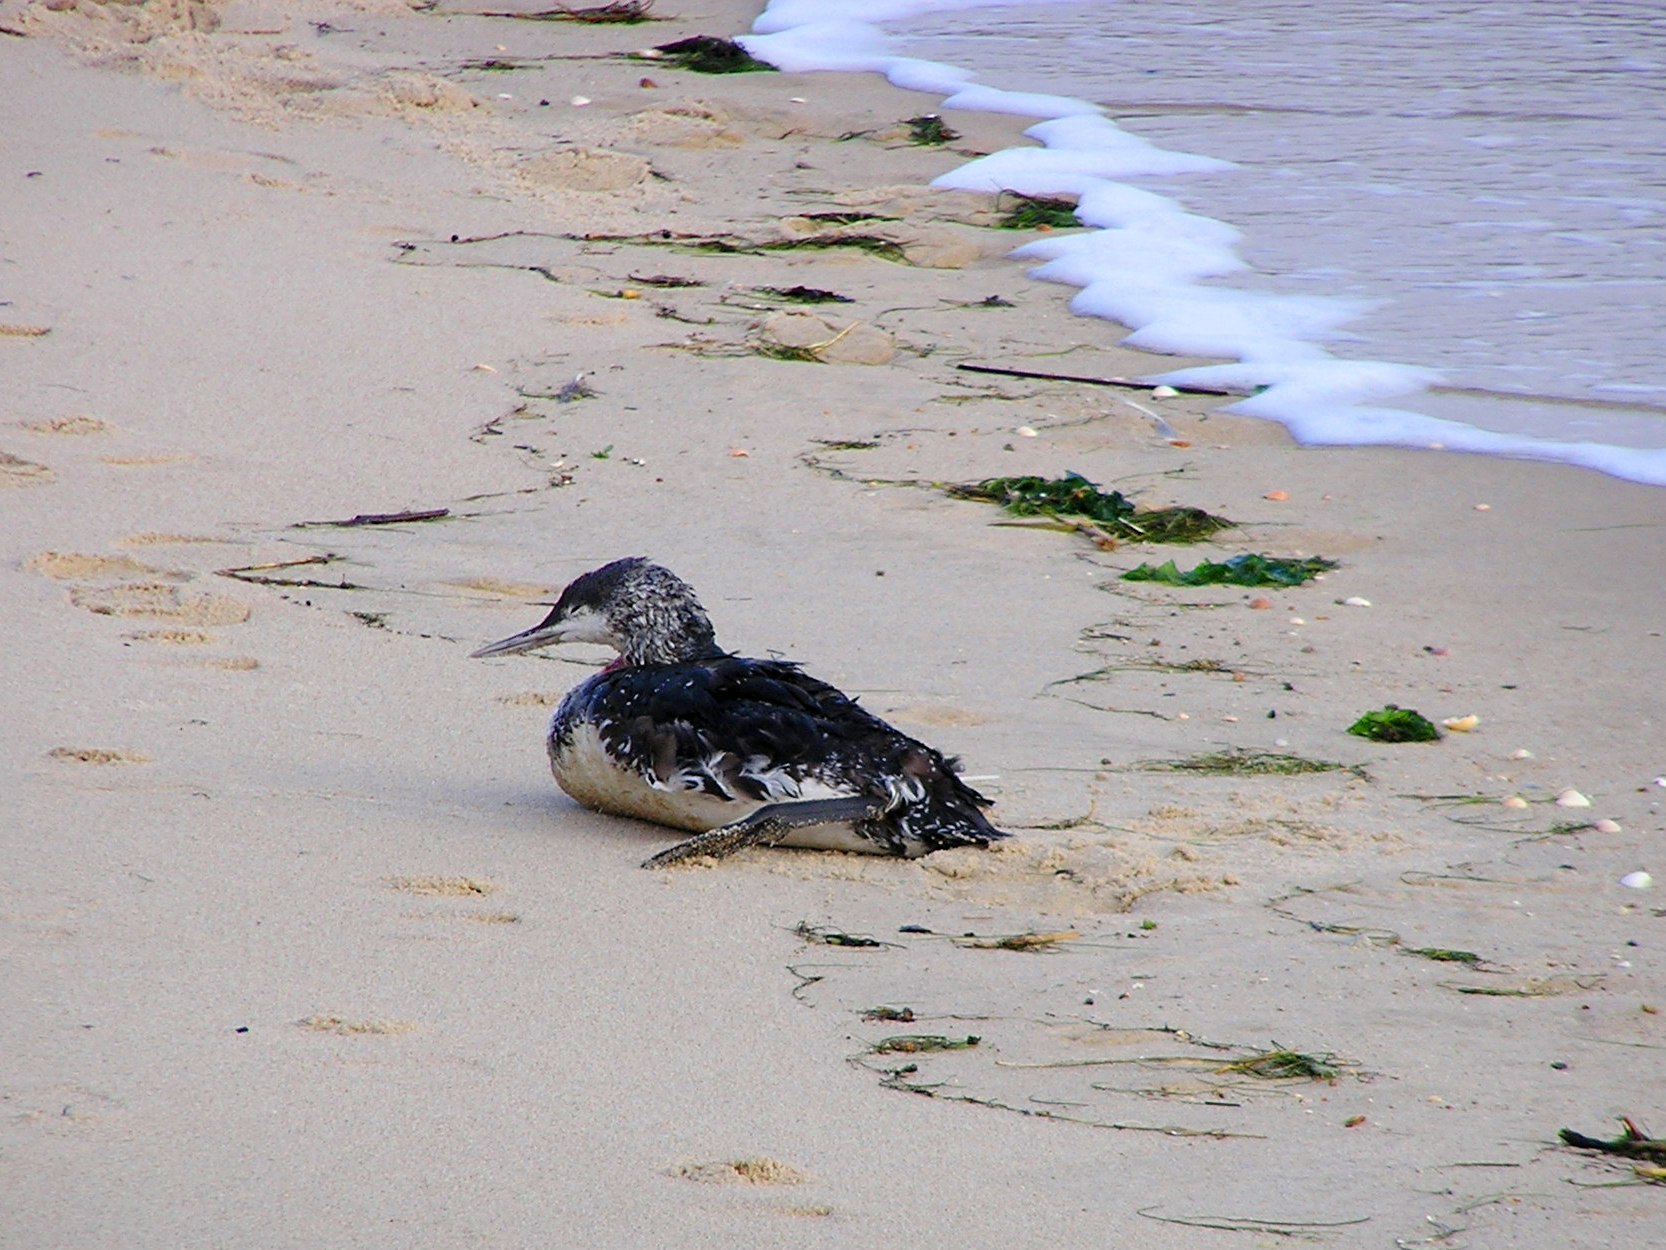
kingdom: Animalia
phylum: Chordata
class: Aves
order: Gaviiformes
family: Gaviidae
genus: Gavia
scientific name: Gavia stellata
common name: Red-throated loon
